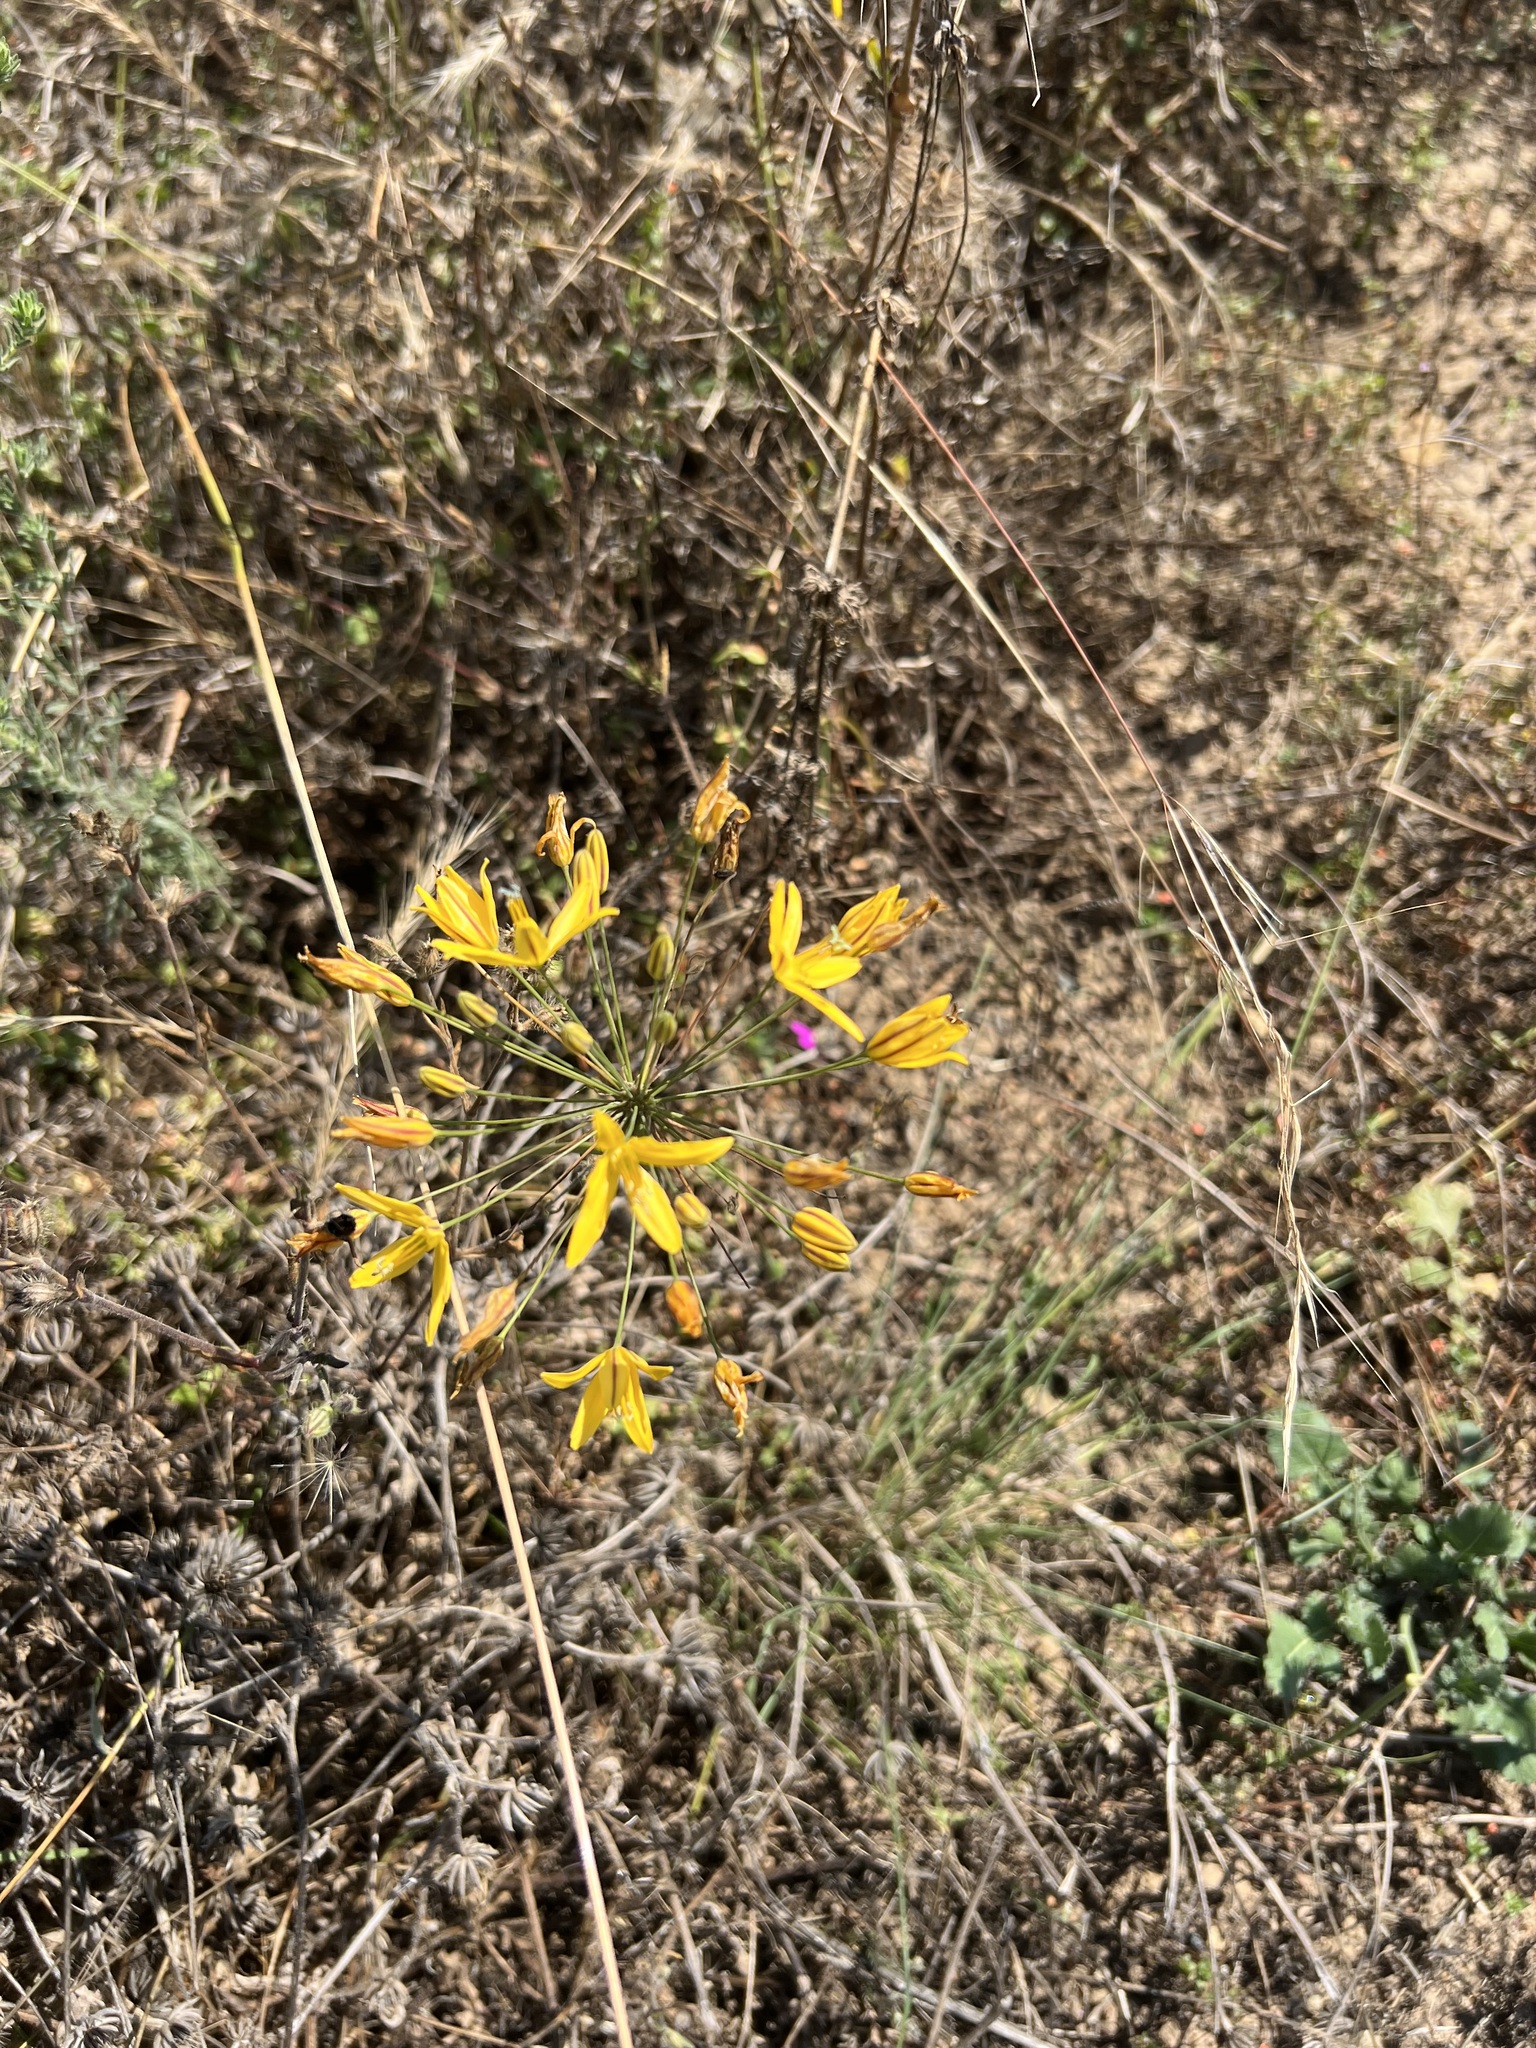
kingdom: Plantae
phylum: Tracheophyta
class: Liliopsida
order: Asparagales
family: Asparagaceae
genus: Bloomeria
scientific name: Bloomeria crocea
